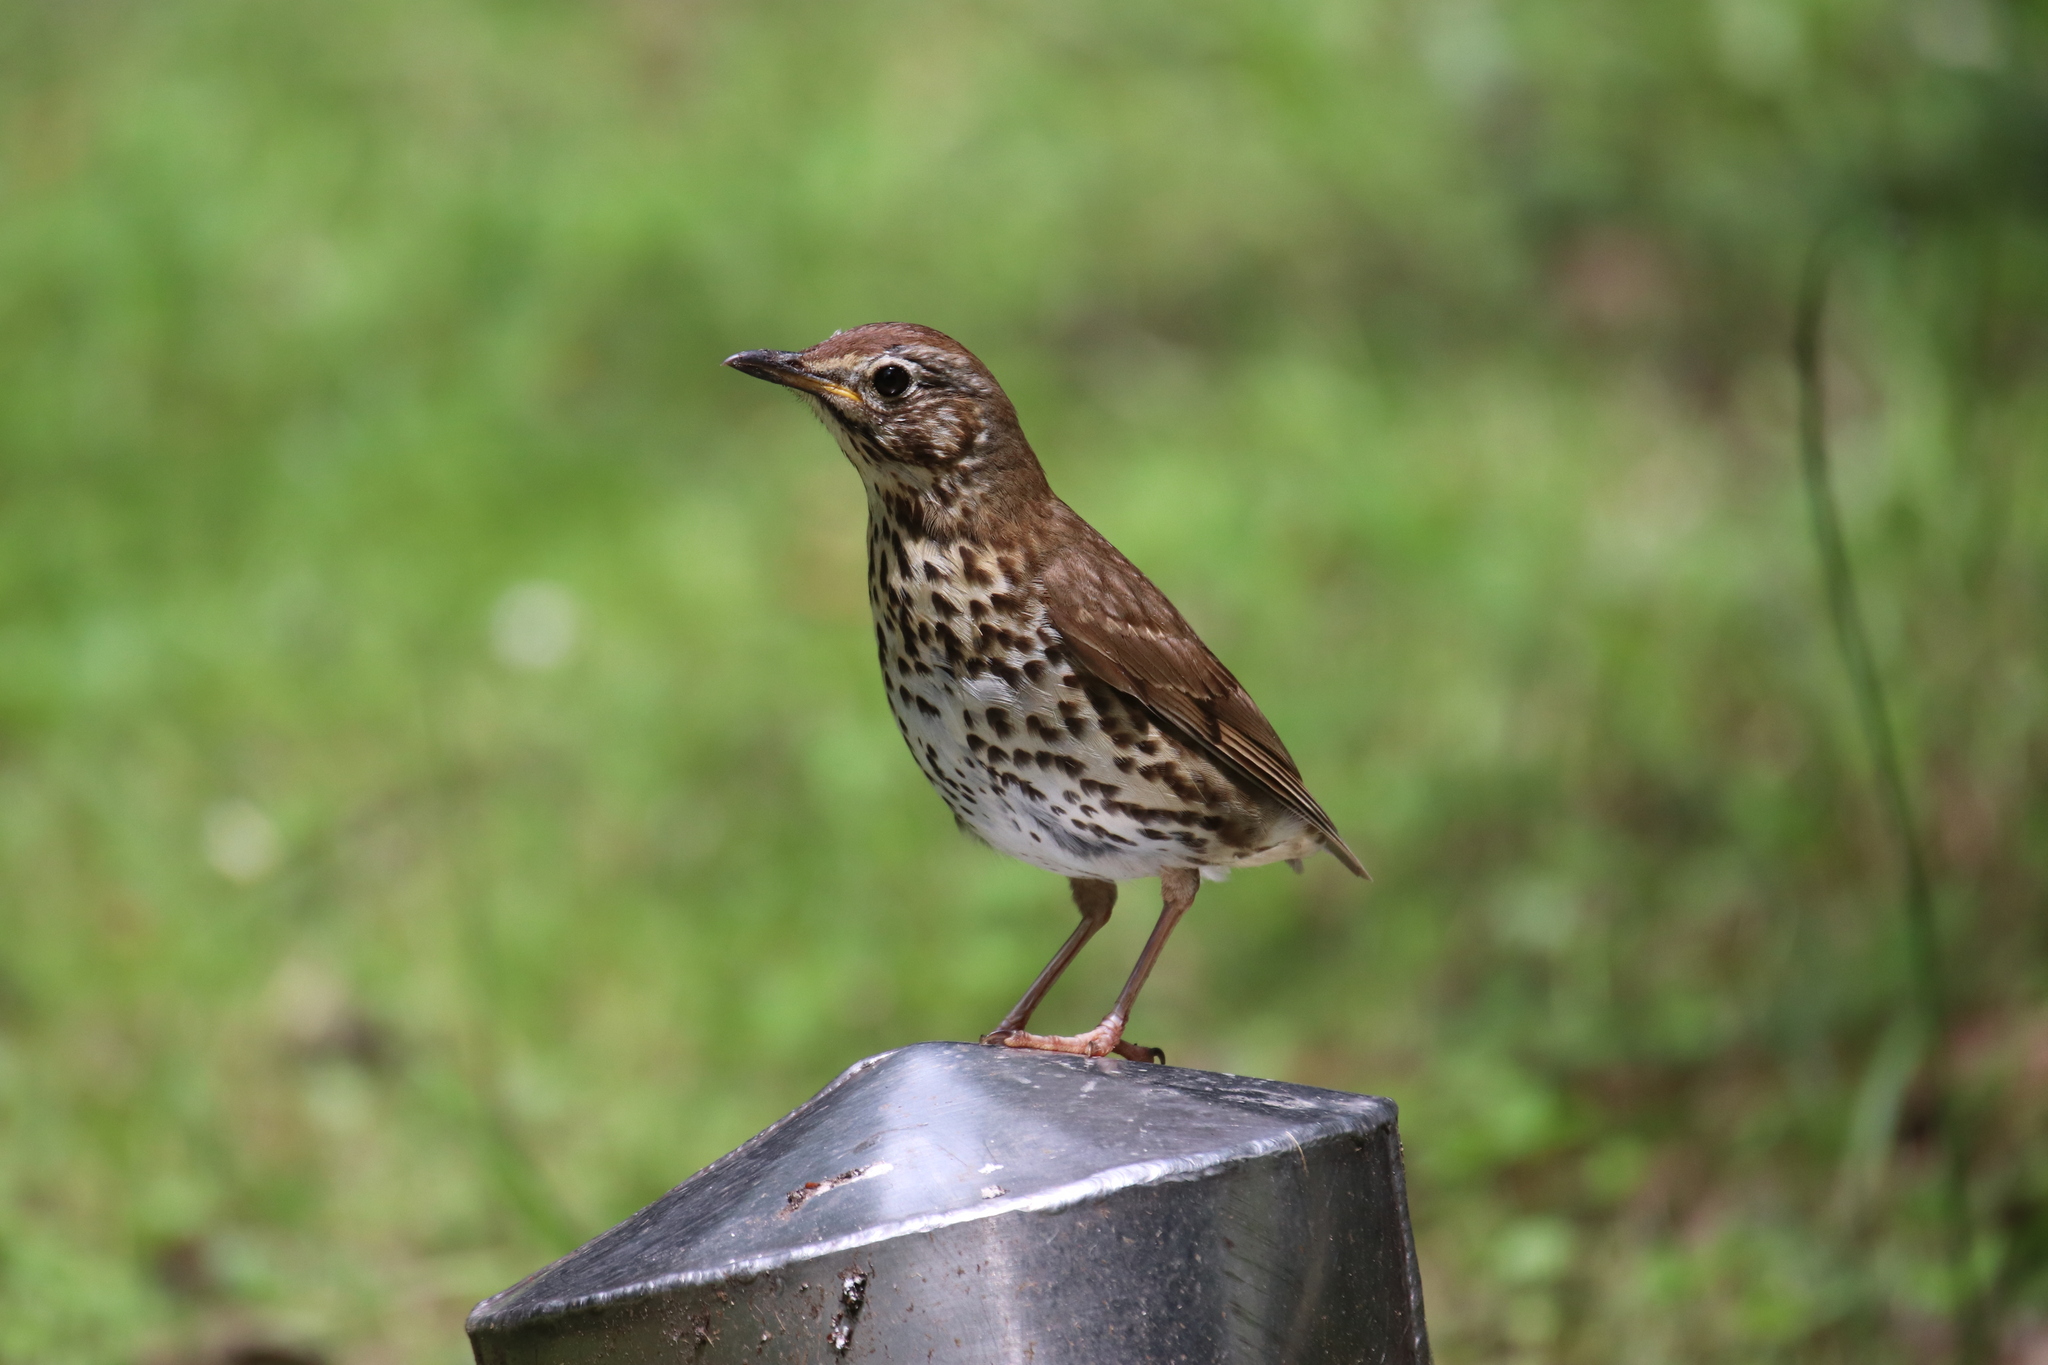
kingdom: Animalia
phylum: Chordata
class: Aves
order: Passeriformes
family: Turdidae
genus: Turdus
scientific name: Turdus philomelos
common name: Song thrush
